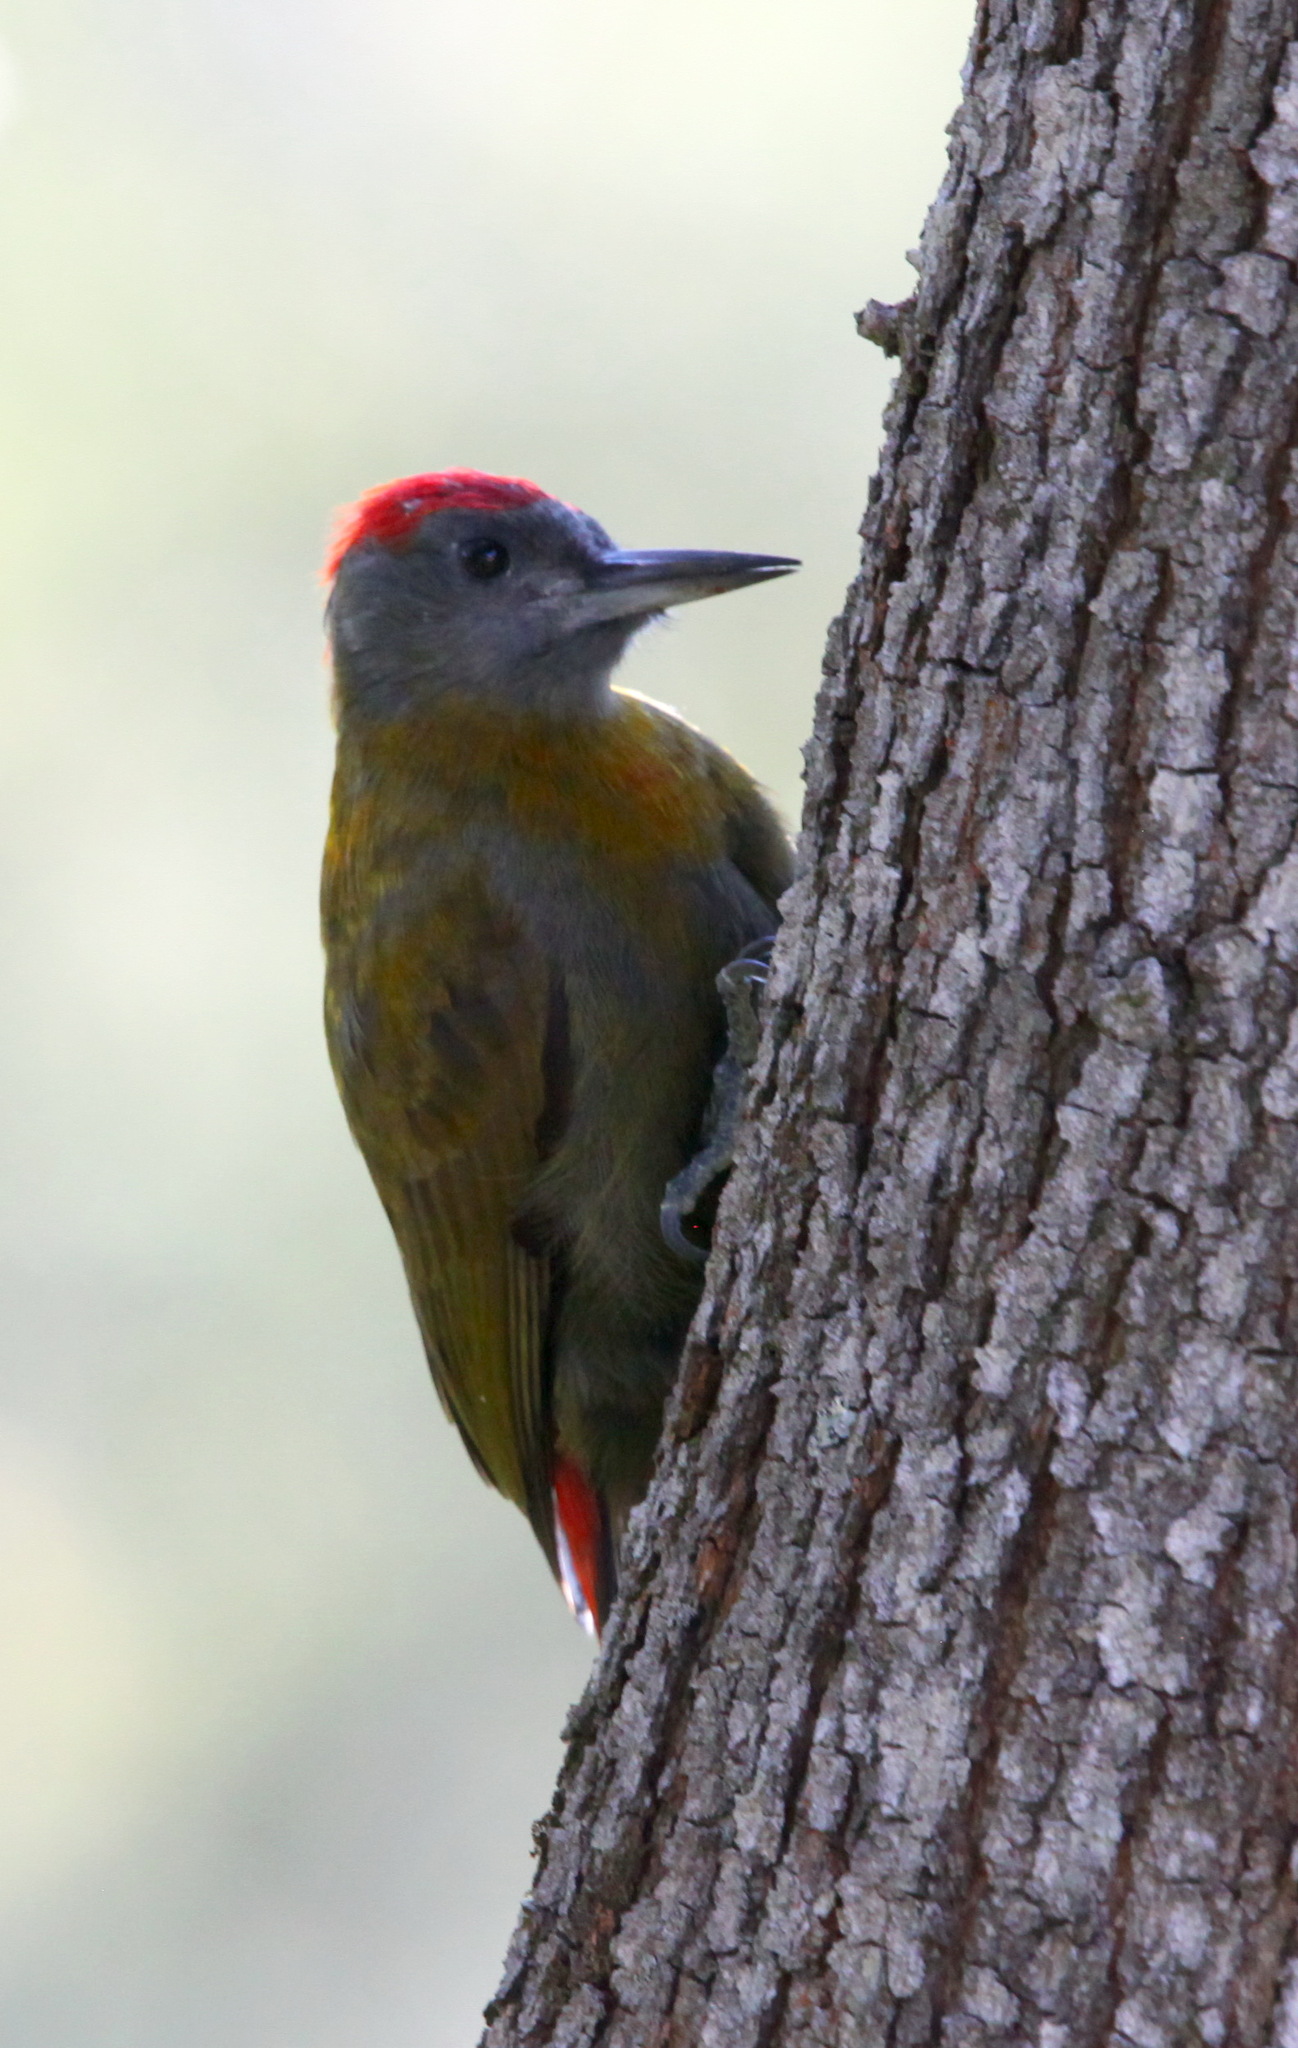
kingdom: Animalia
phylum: Chordata
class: Aves
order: Piciformes
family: Picidae
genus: Dendropicos
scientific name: Dendropicos griseocephalus
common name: Olive woodpecker
